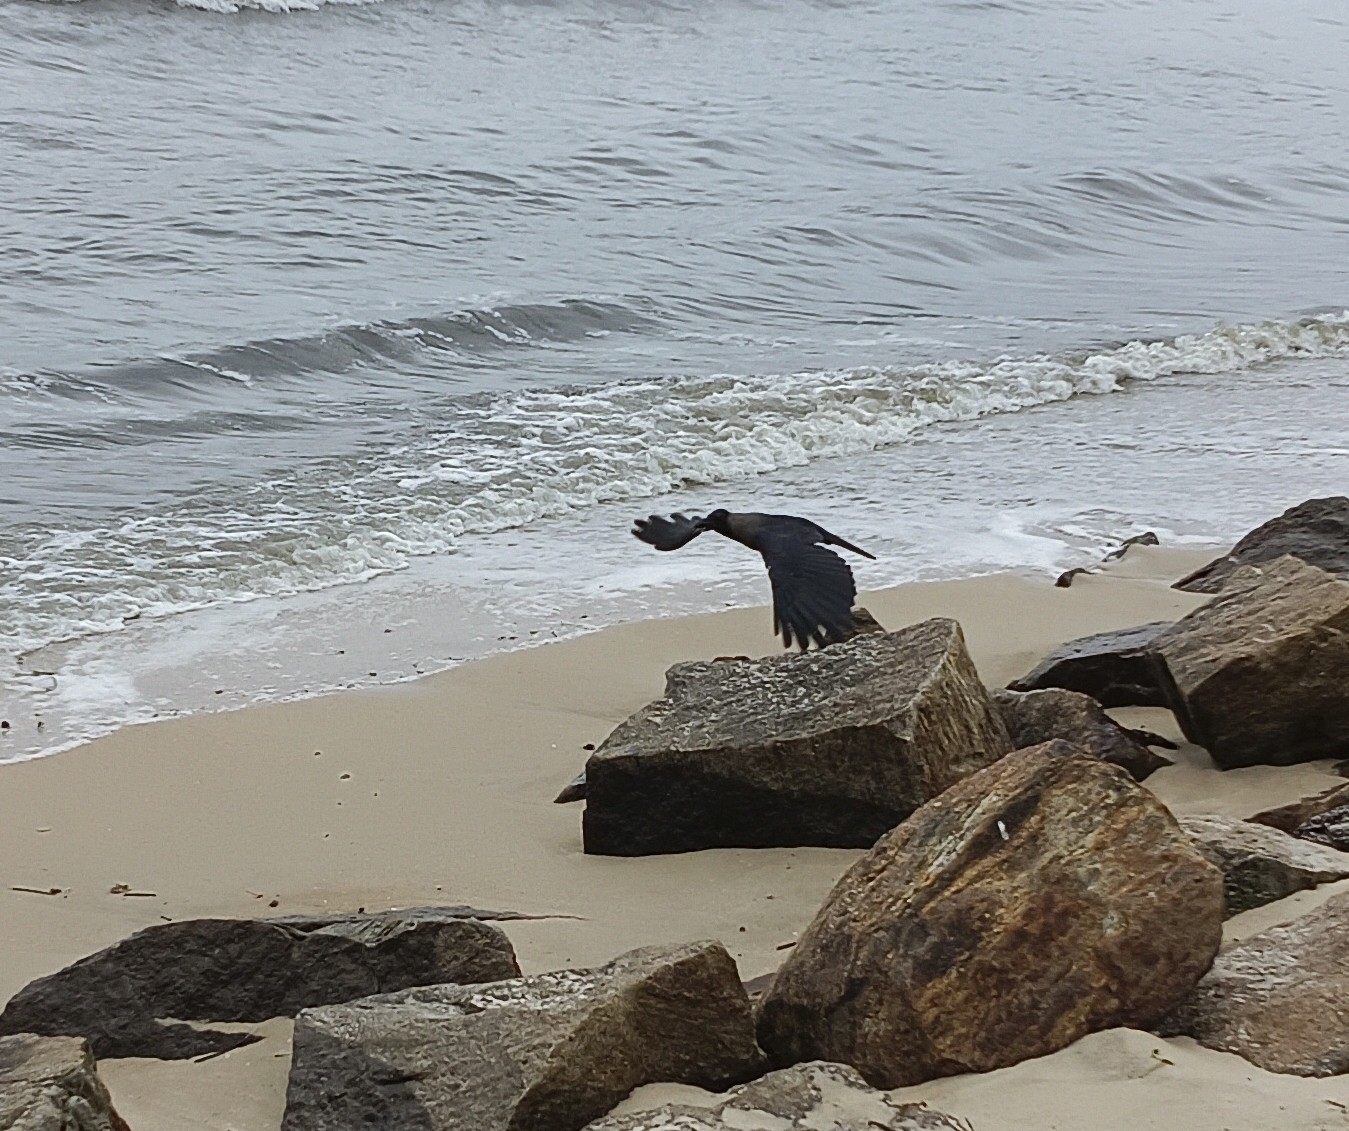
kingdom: Animalia
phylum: Chordata
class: Aves
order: Passeriformes
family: Corvidae
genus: Corvus
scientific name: Corvus splendens
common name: House crow
